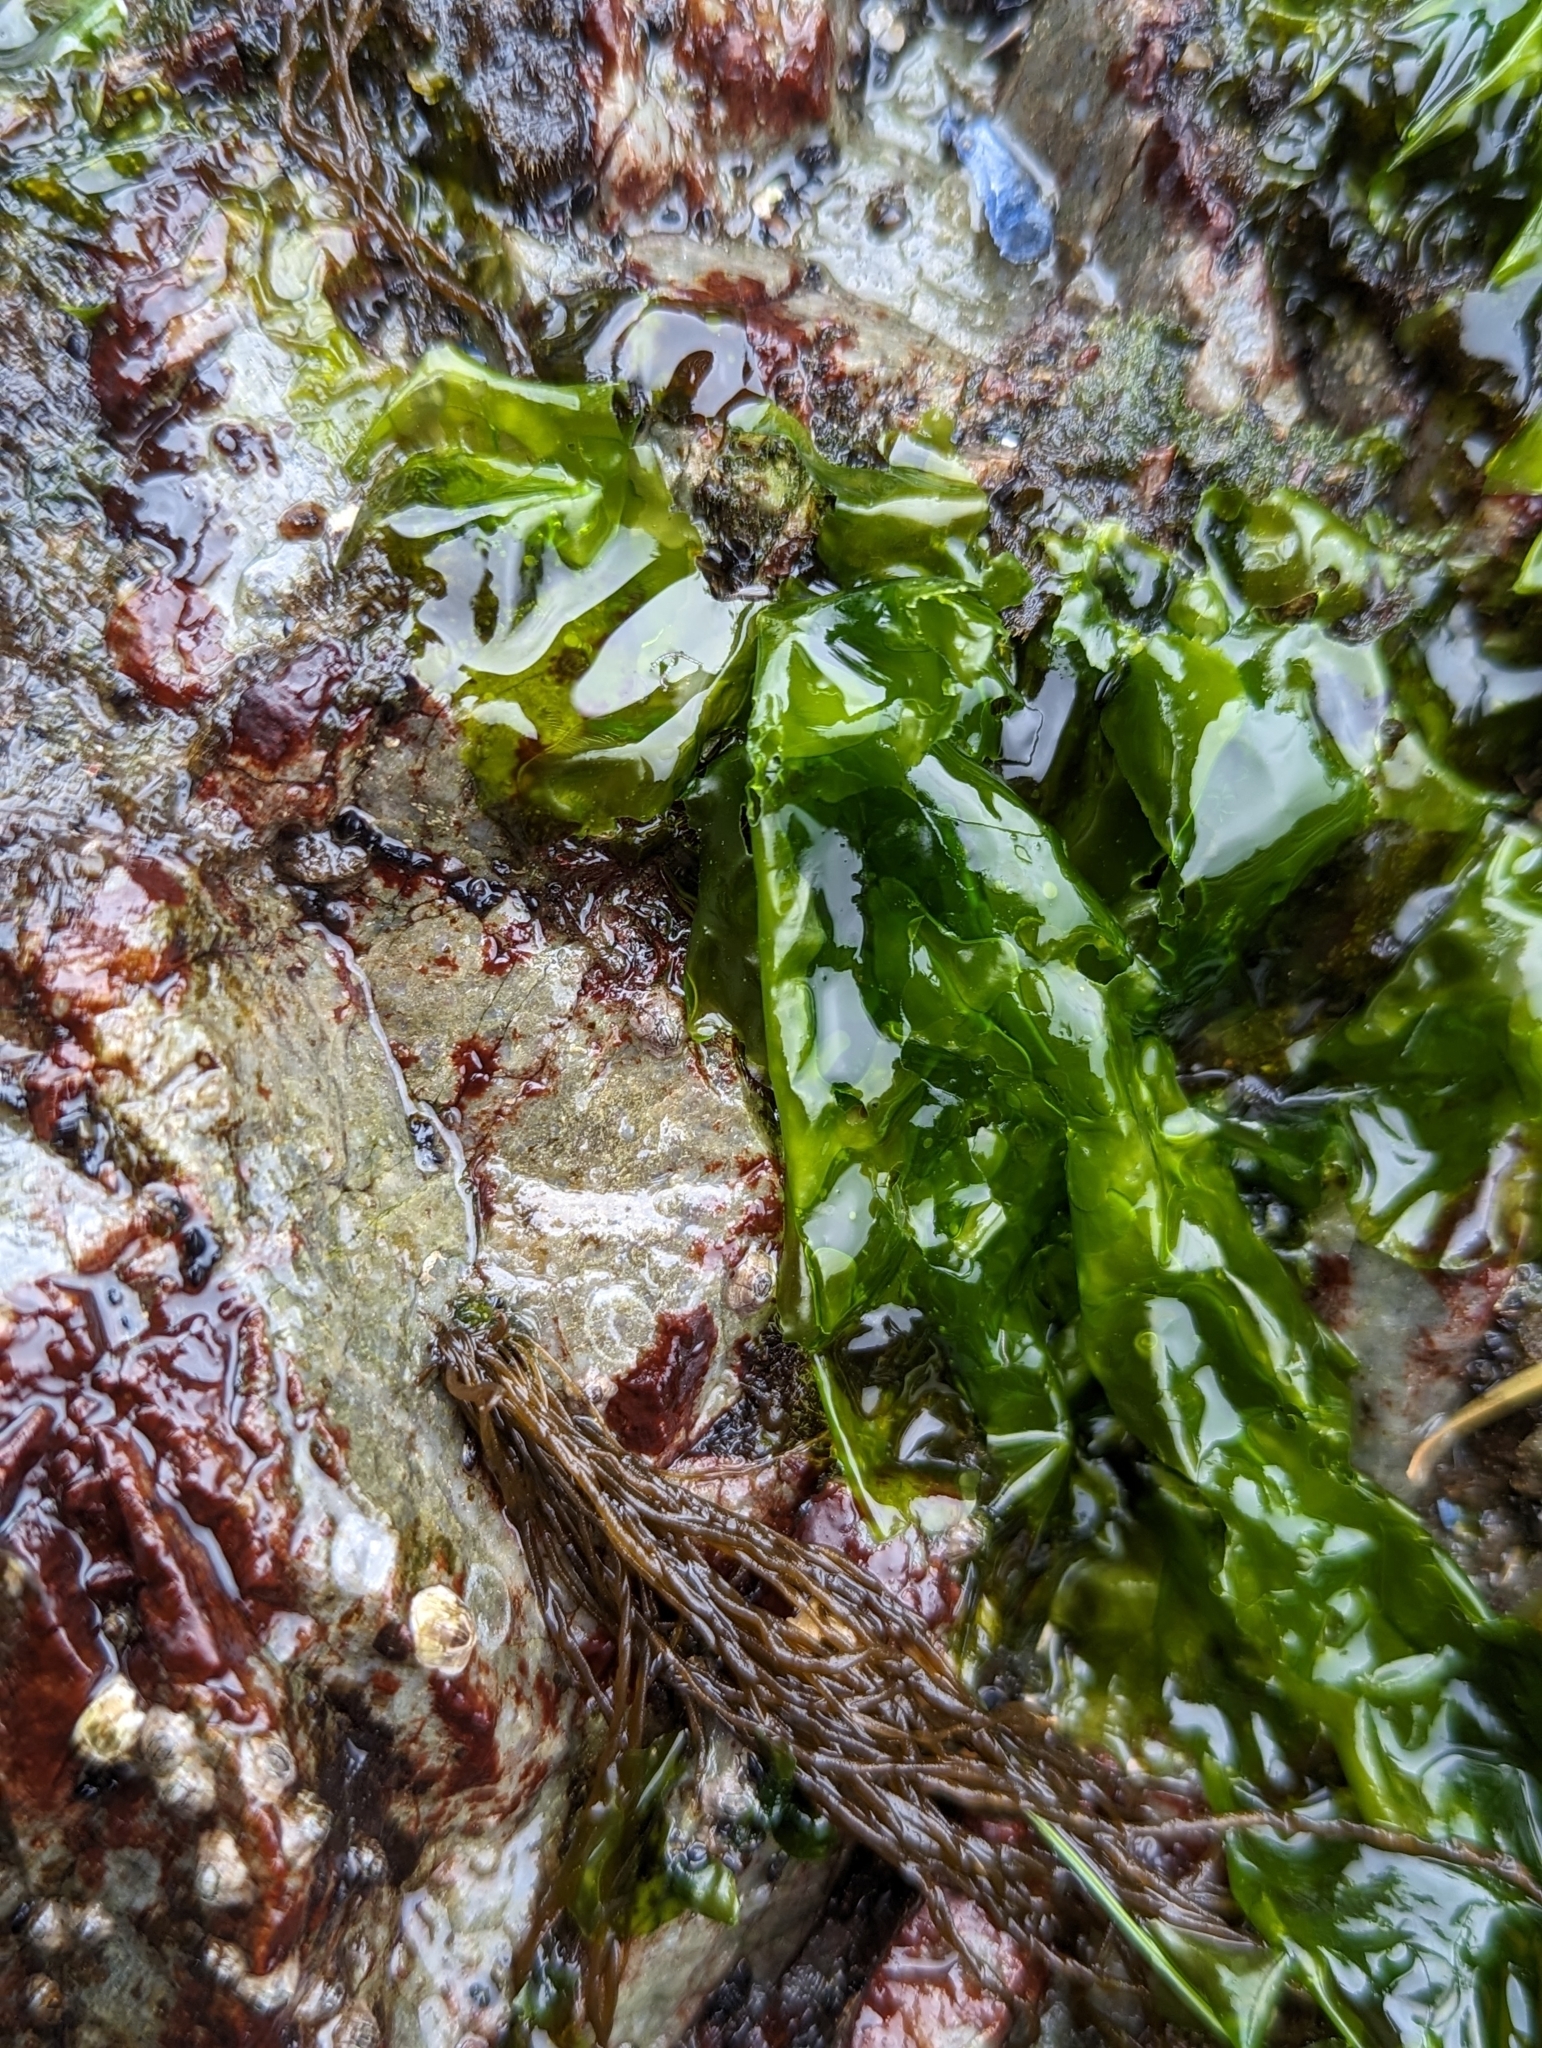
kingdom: Plantae
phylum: Chlorophyta
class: Ulvophyceae
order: Ulvales
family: Ulvaceae
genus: Ulva
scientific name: Ulva lactuca
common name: Sea lettuce
